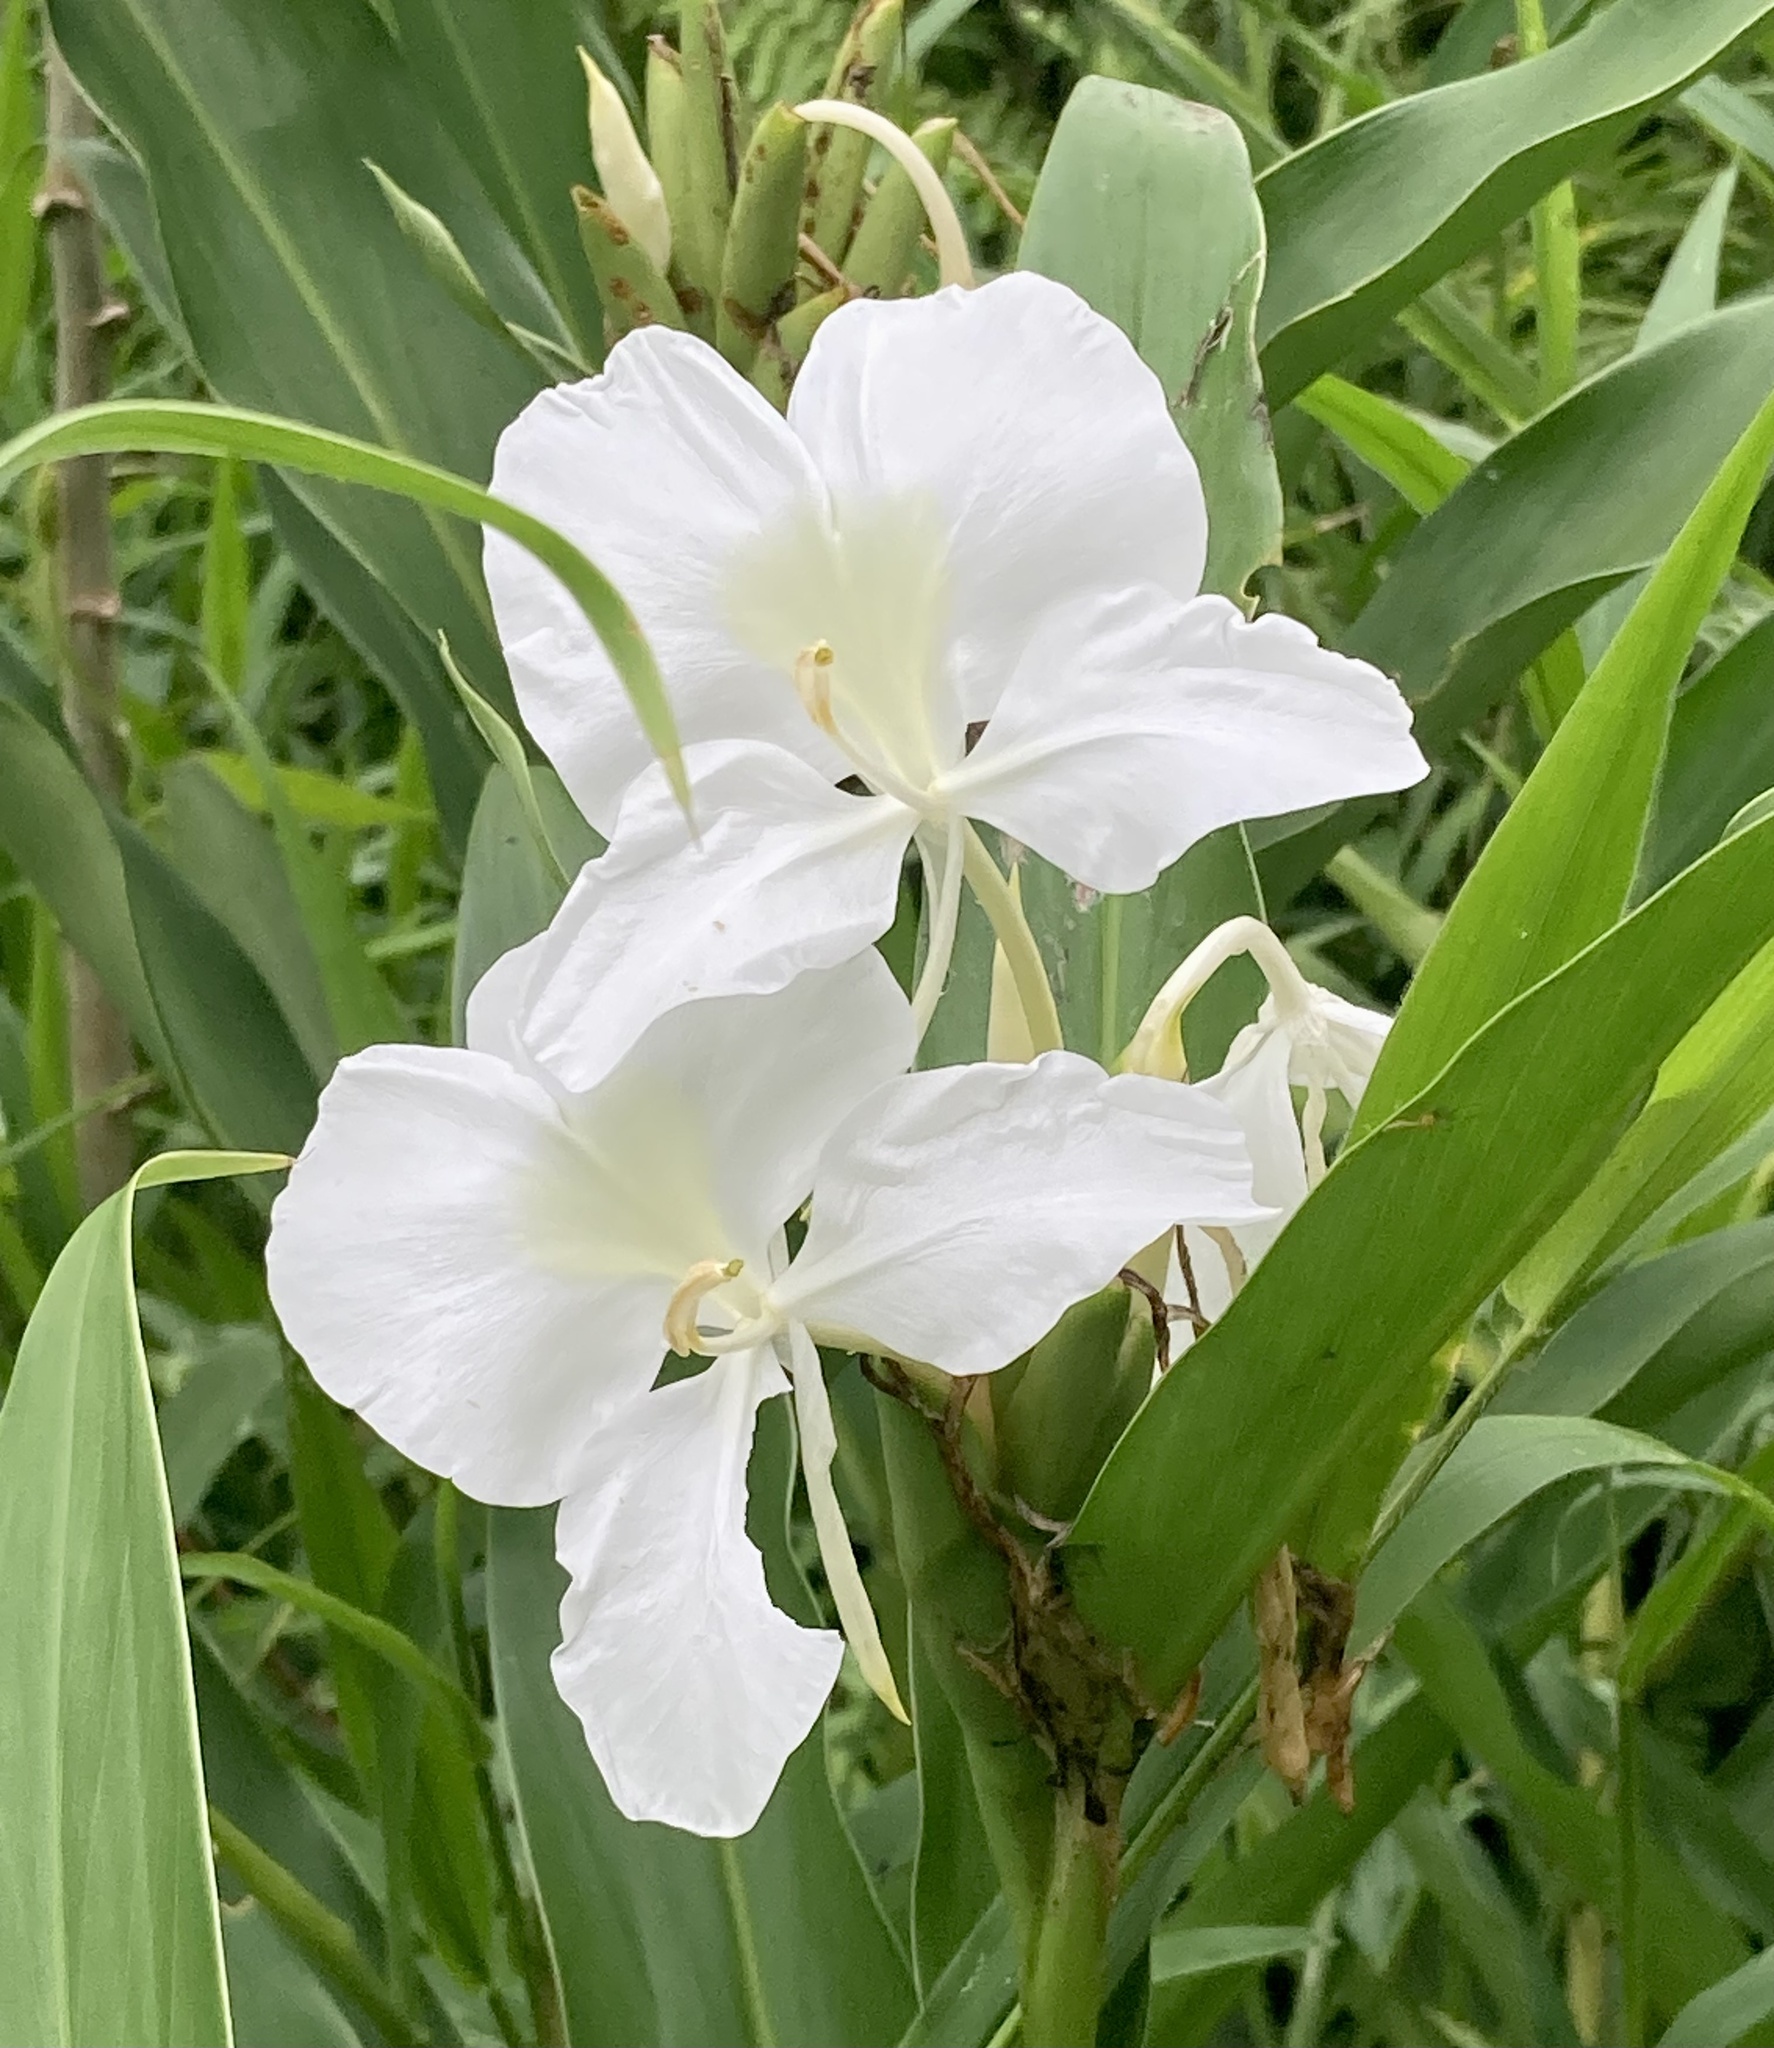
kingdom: Plantae
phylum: Tracheophyta
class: Liliopsida
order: Zingiberales
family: Zingiberaceae
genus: Hedychium
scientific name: Hedychium coronarium
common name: White garland-lily
